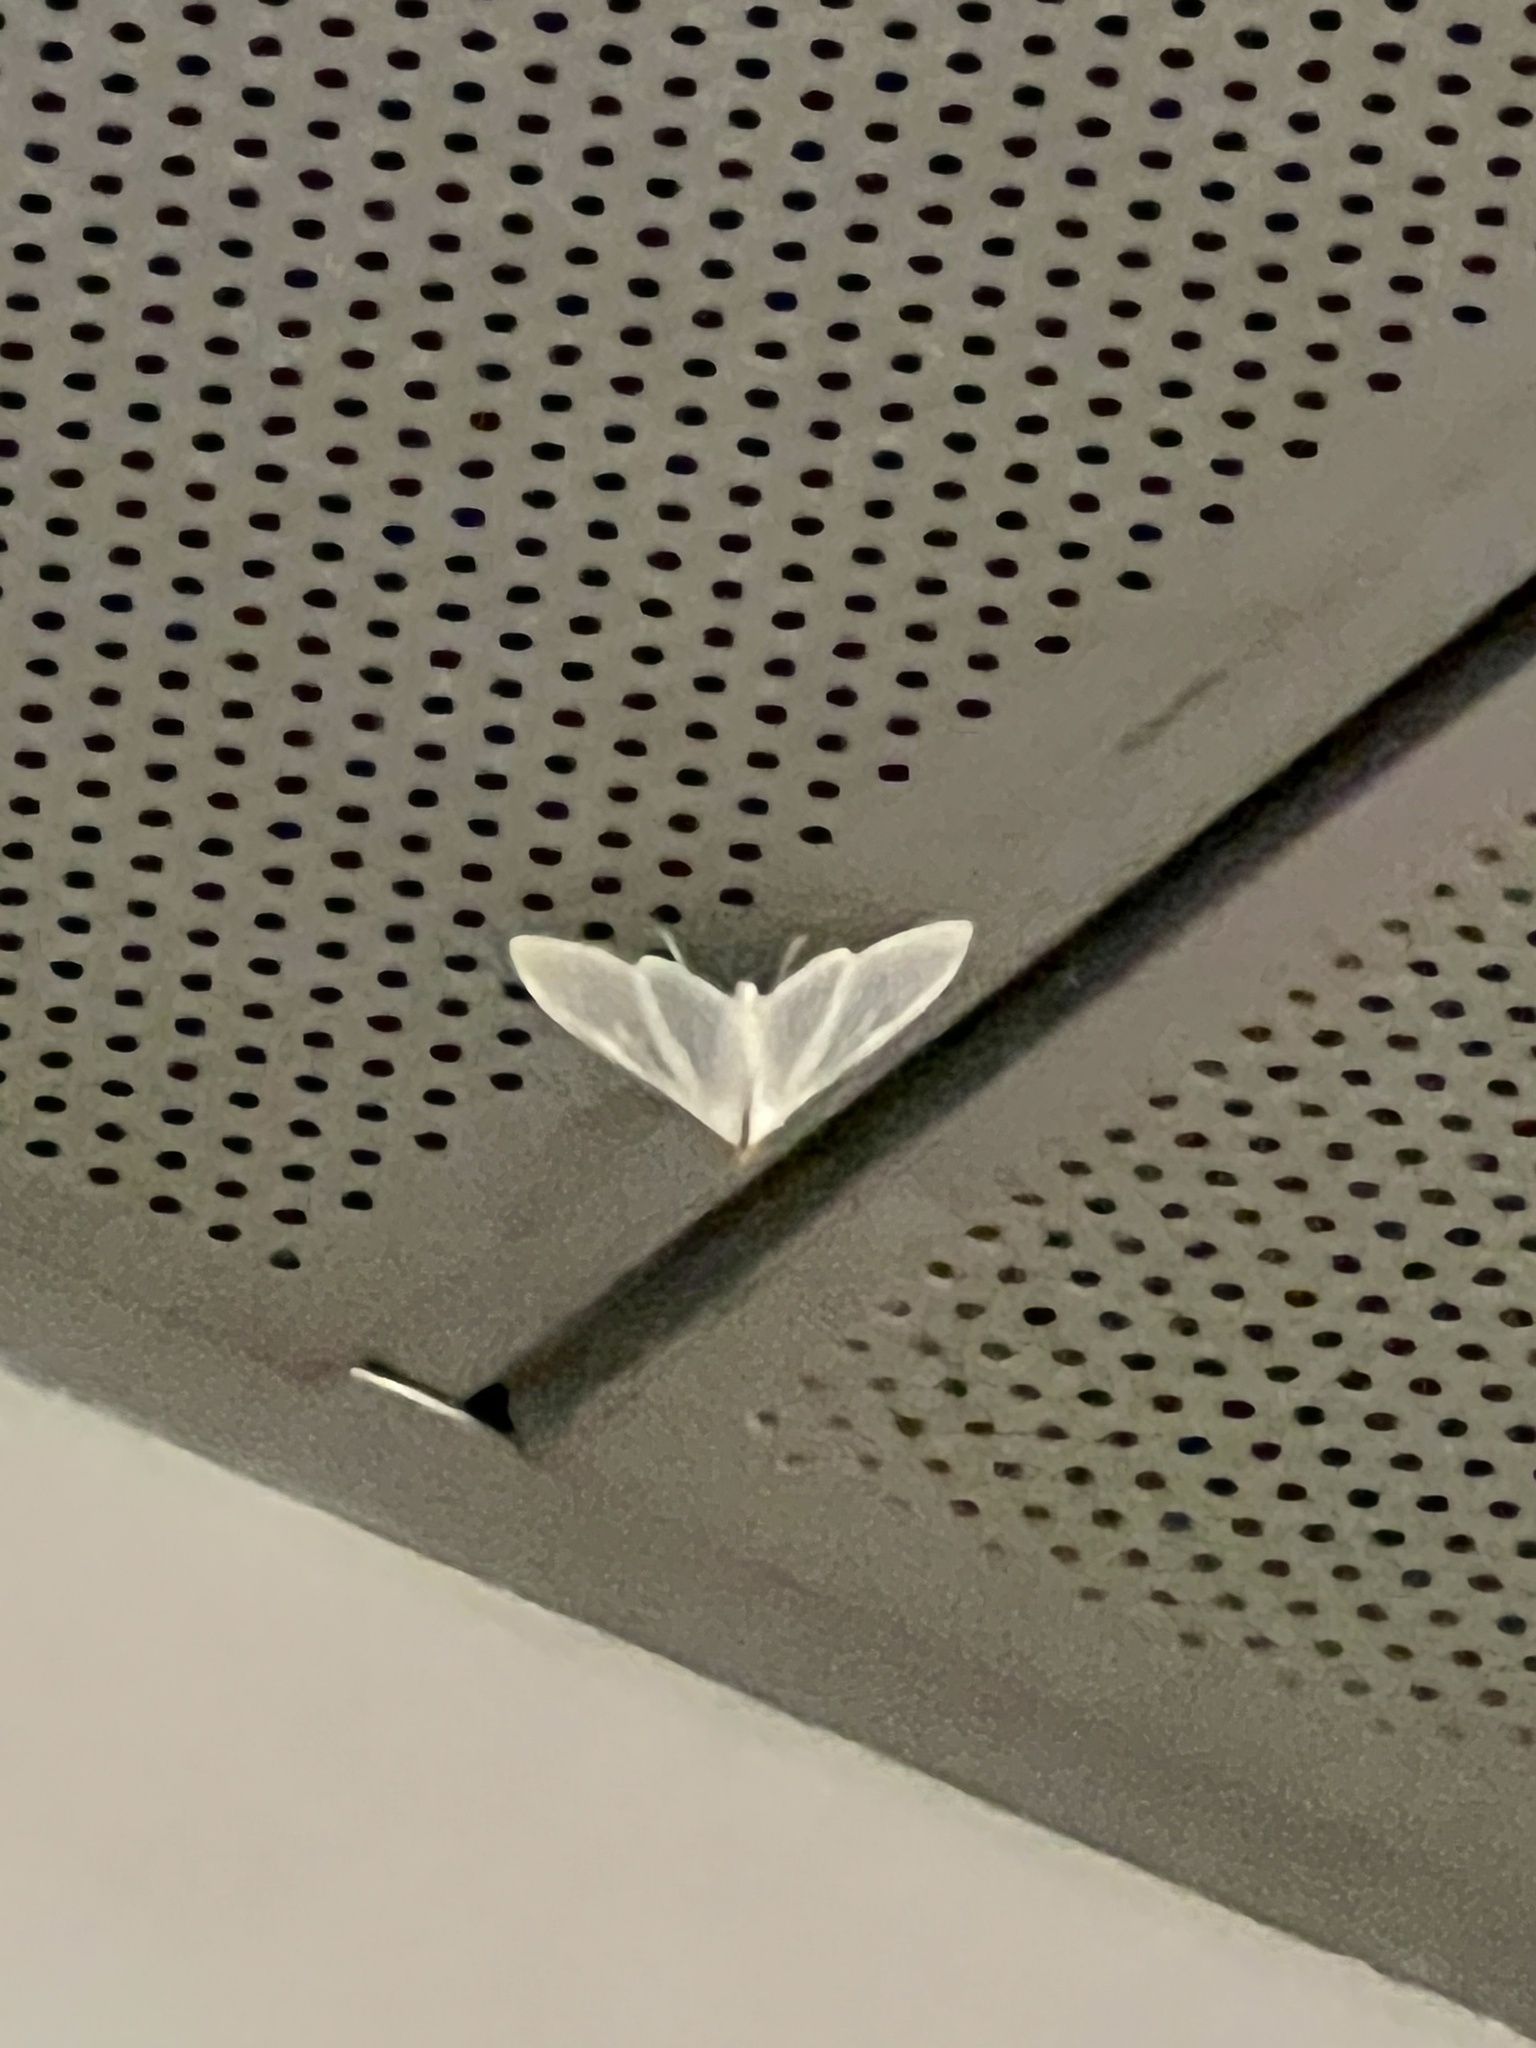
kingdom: Animalia
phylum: Arthropoda
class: Insecta
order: Lepidoptera
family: Crambidae
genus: Palpita
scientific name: Palpita flegia
